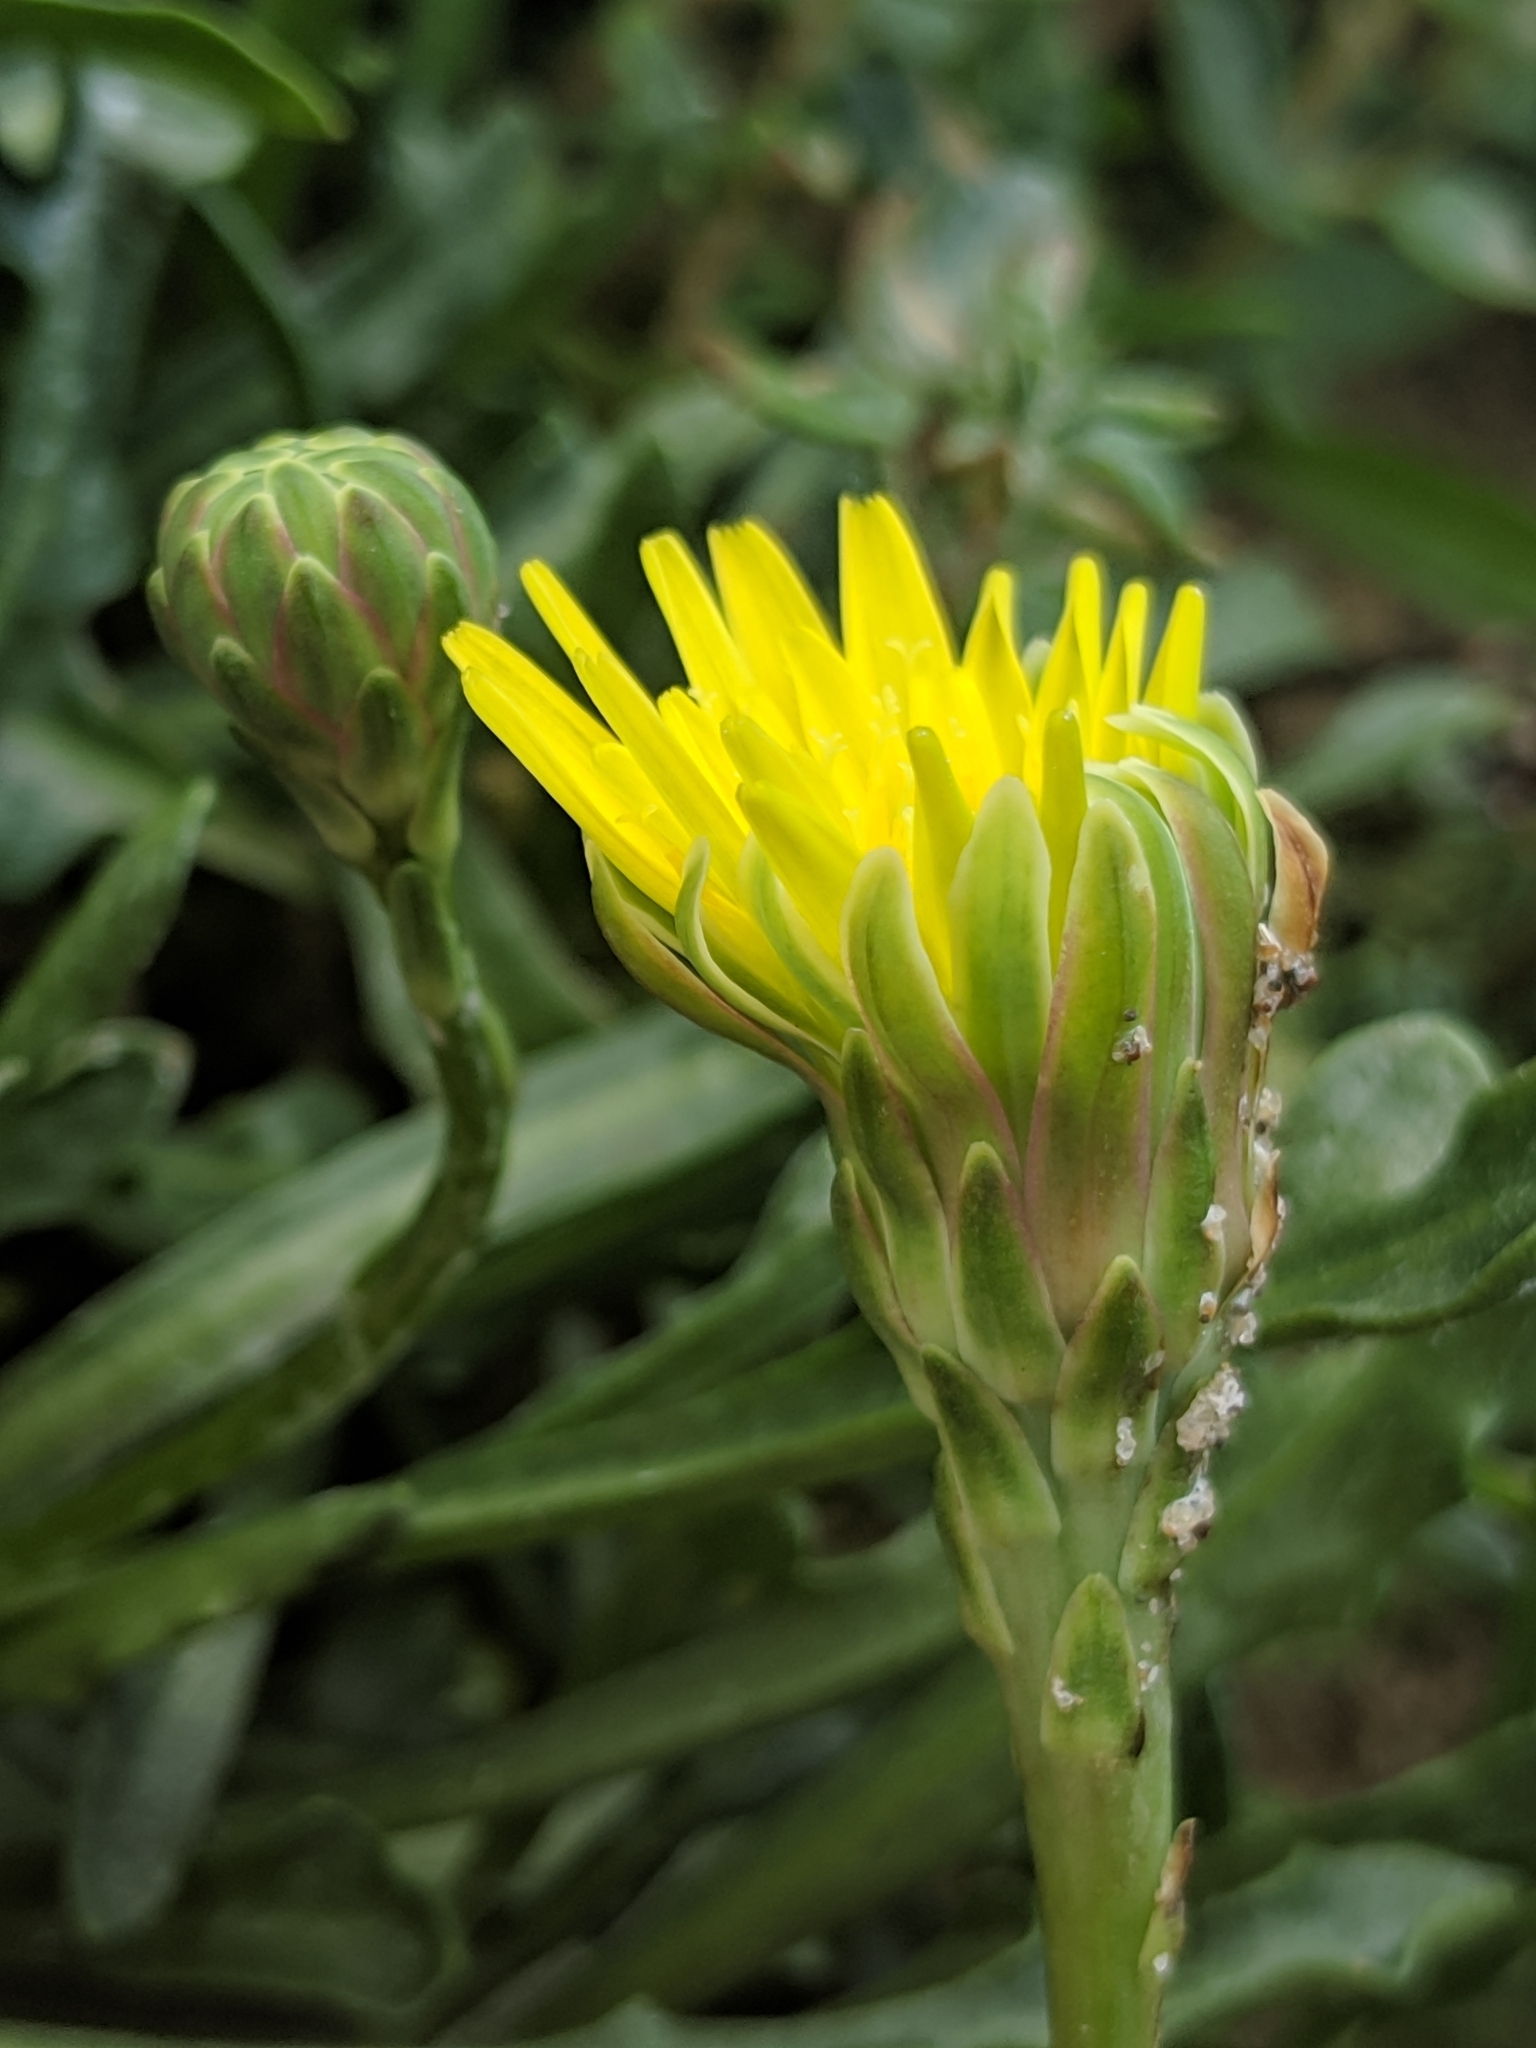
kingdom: Plantae
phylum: Tracheophyta
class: Magnoliopsida
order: Asterales
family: Asteraceae
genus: Malacothrix
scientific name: Malacothrix incana
